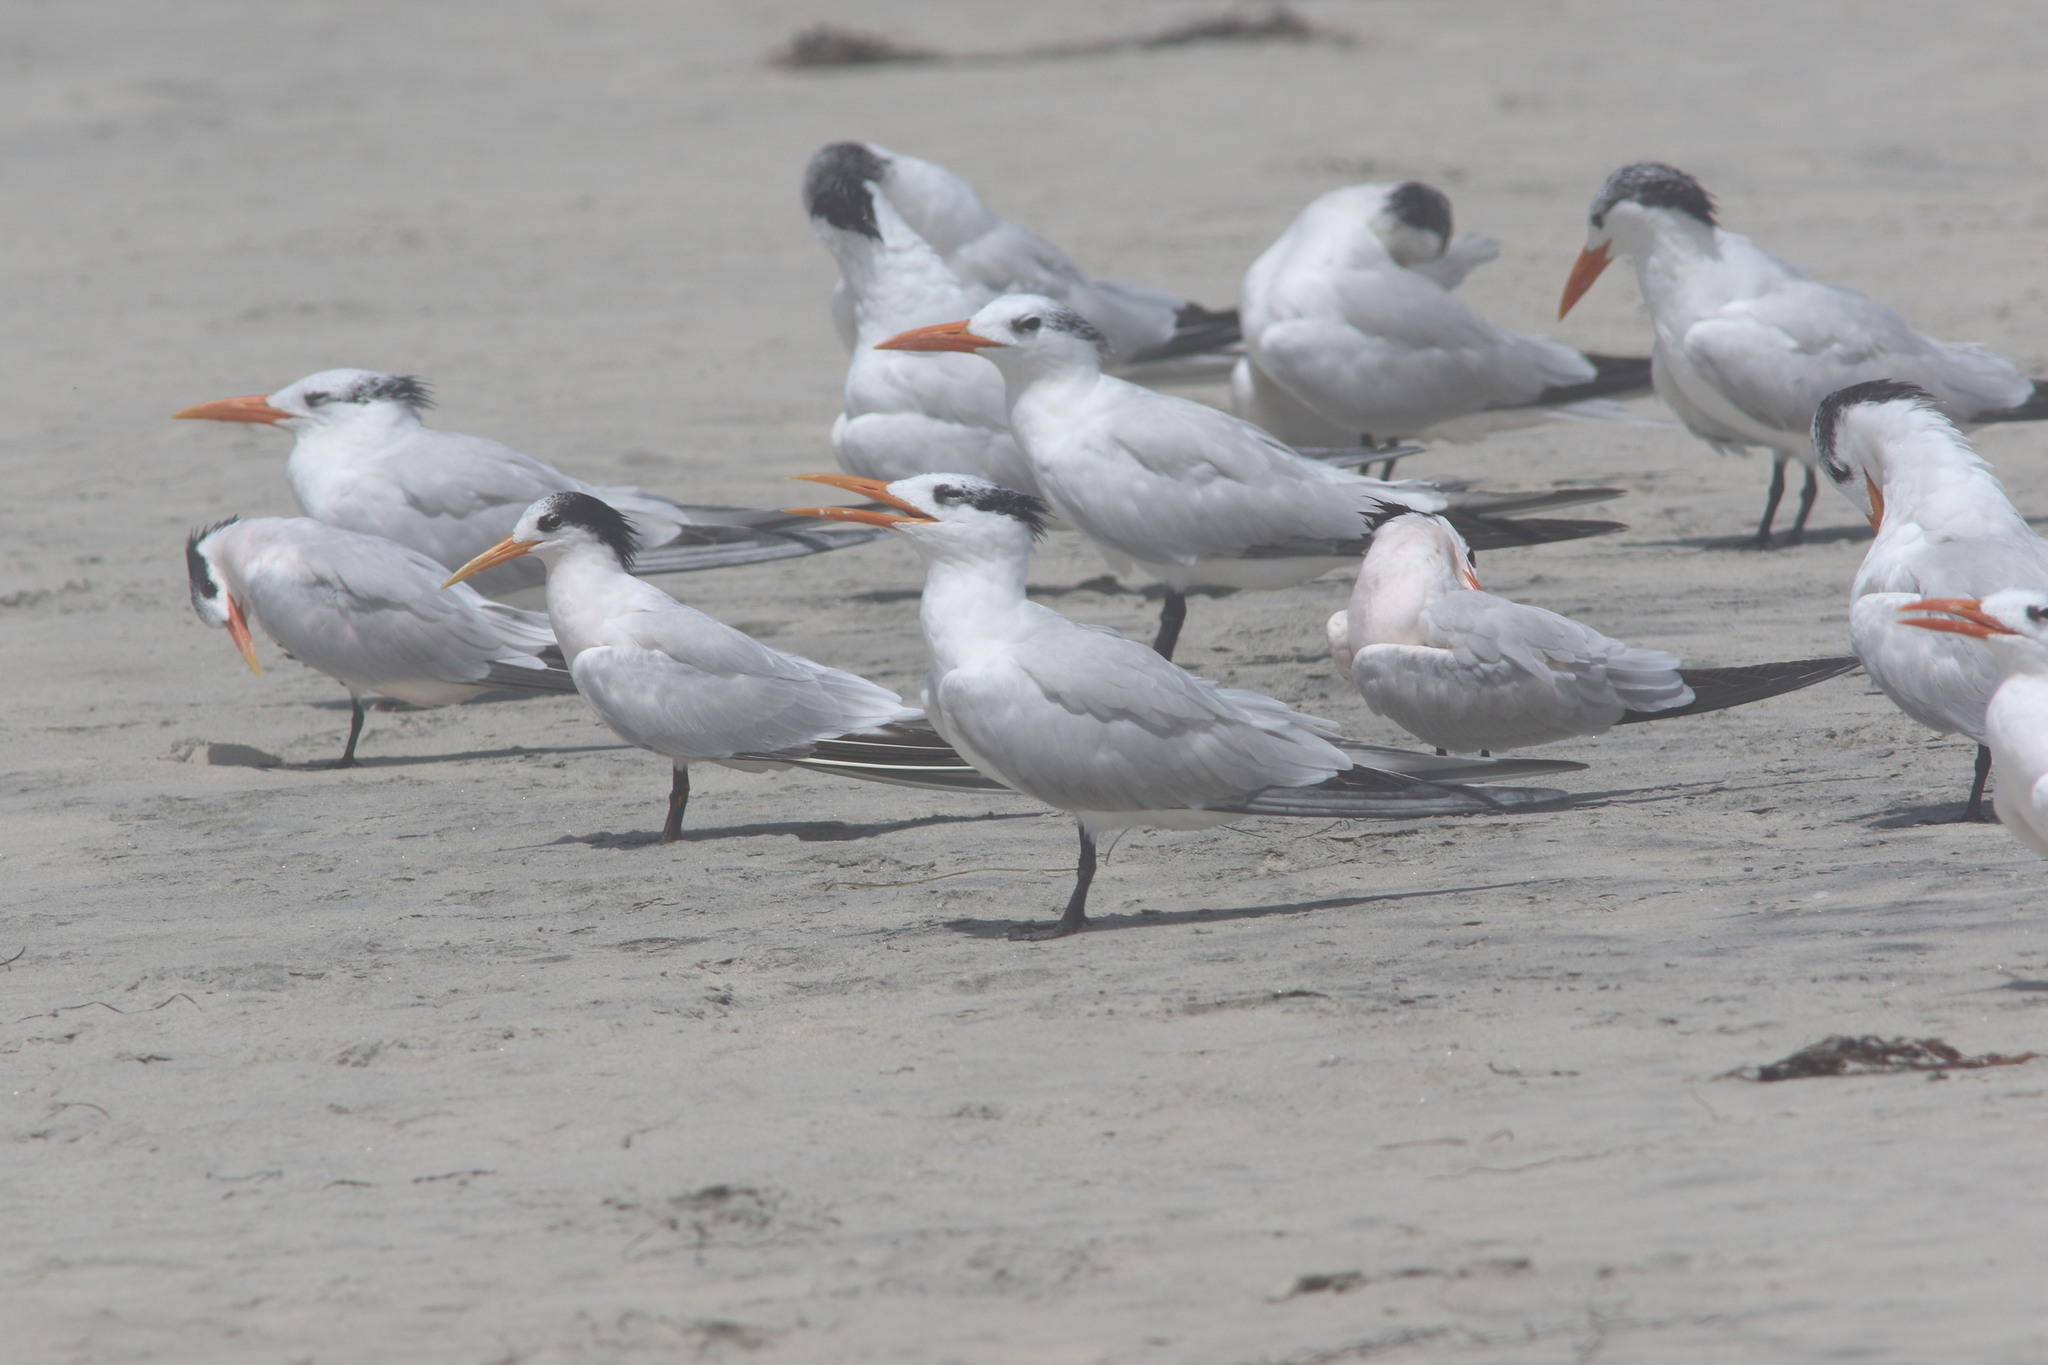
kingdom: Animalia
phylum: Chordata
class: Aves
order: Charadriiformes
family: Laridae
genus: Thalasseus
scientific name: Thalasseus maximus
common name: Royal tern
